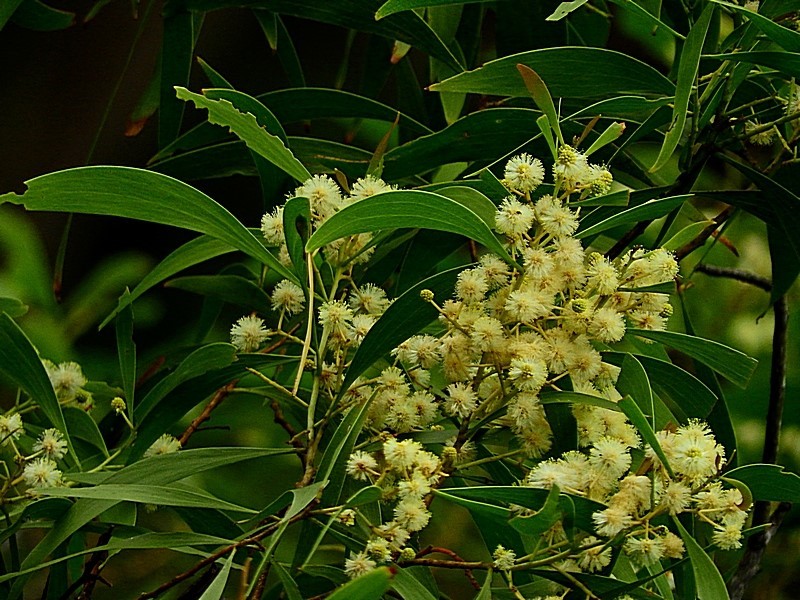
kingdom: Plantae
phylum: Tracheophyta
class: Magnoliopsida
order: Fabales
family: Fabaceae
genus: Acacia
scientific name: Acacia implexa
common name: Black wattle
